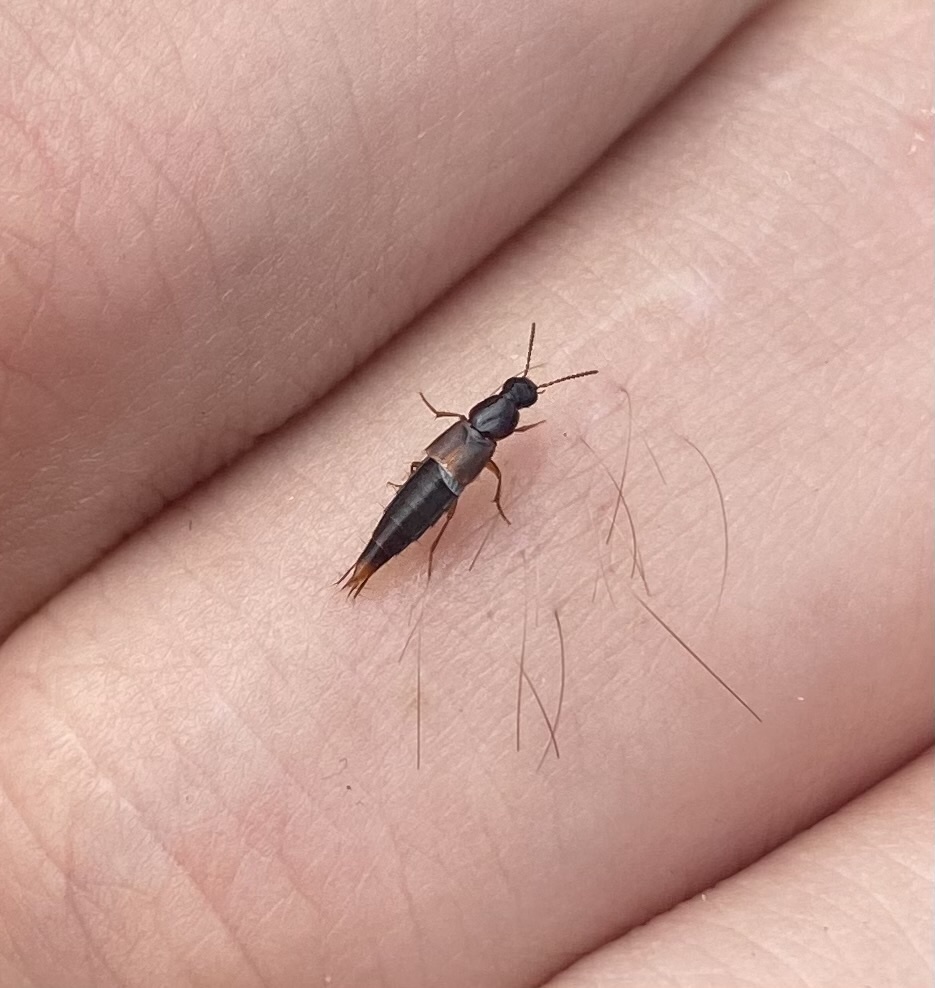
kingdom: Animalia
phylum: Arthropoda
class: Insecta
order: Coleoptera
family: Staphylinidae
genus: Quedius
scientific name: Quedius
